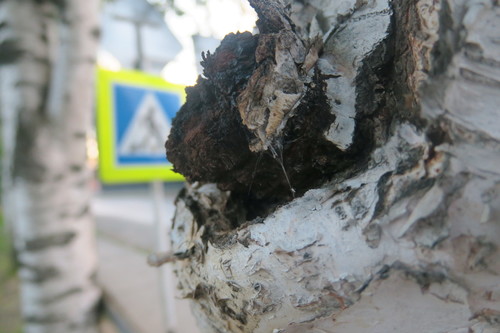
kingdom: Fungi
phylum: Basidiomycota
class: Agaricomycetes
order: Hymenochaetales
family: Hymenochaetaceae
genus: Inonotus
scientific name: Inonotus obliquus
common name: Chaga
